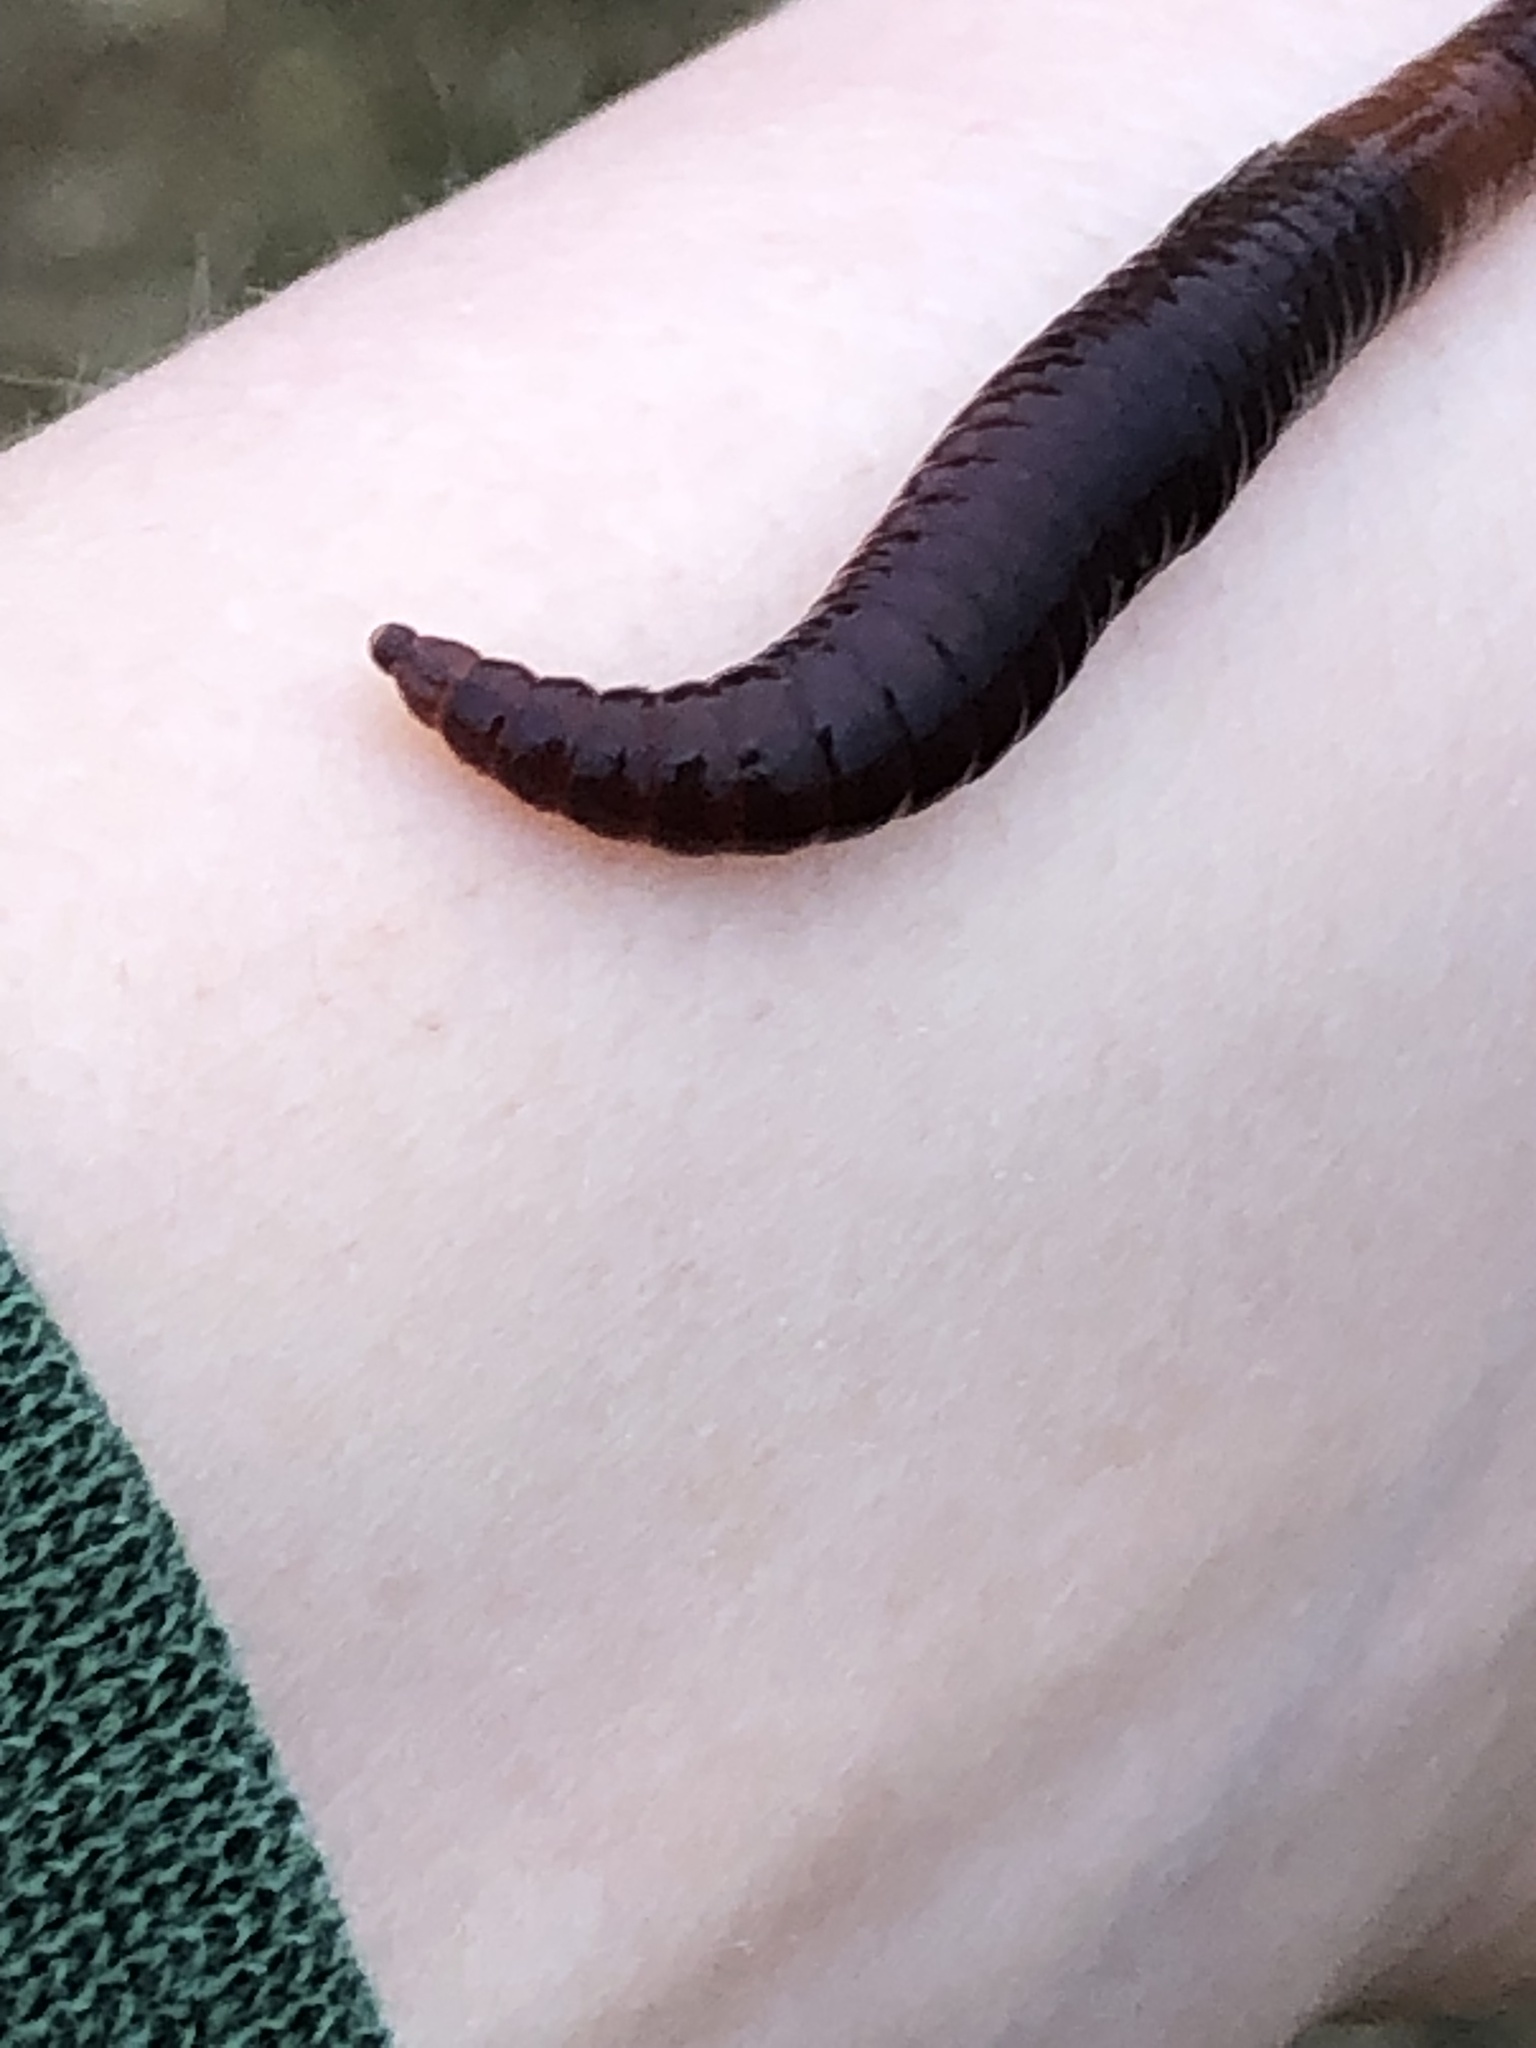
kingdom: Animalia
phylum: Annelida
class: Clitellata
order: Crassiclitellata
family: Lumbricidae
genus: Lumbricus
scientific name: Lumbricus rubellus
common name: Red worm
